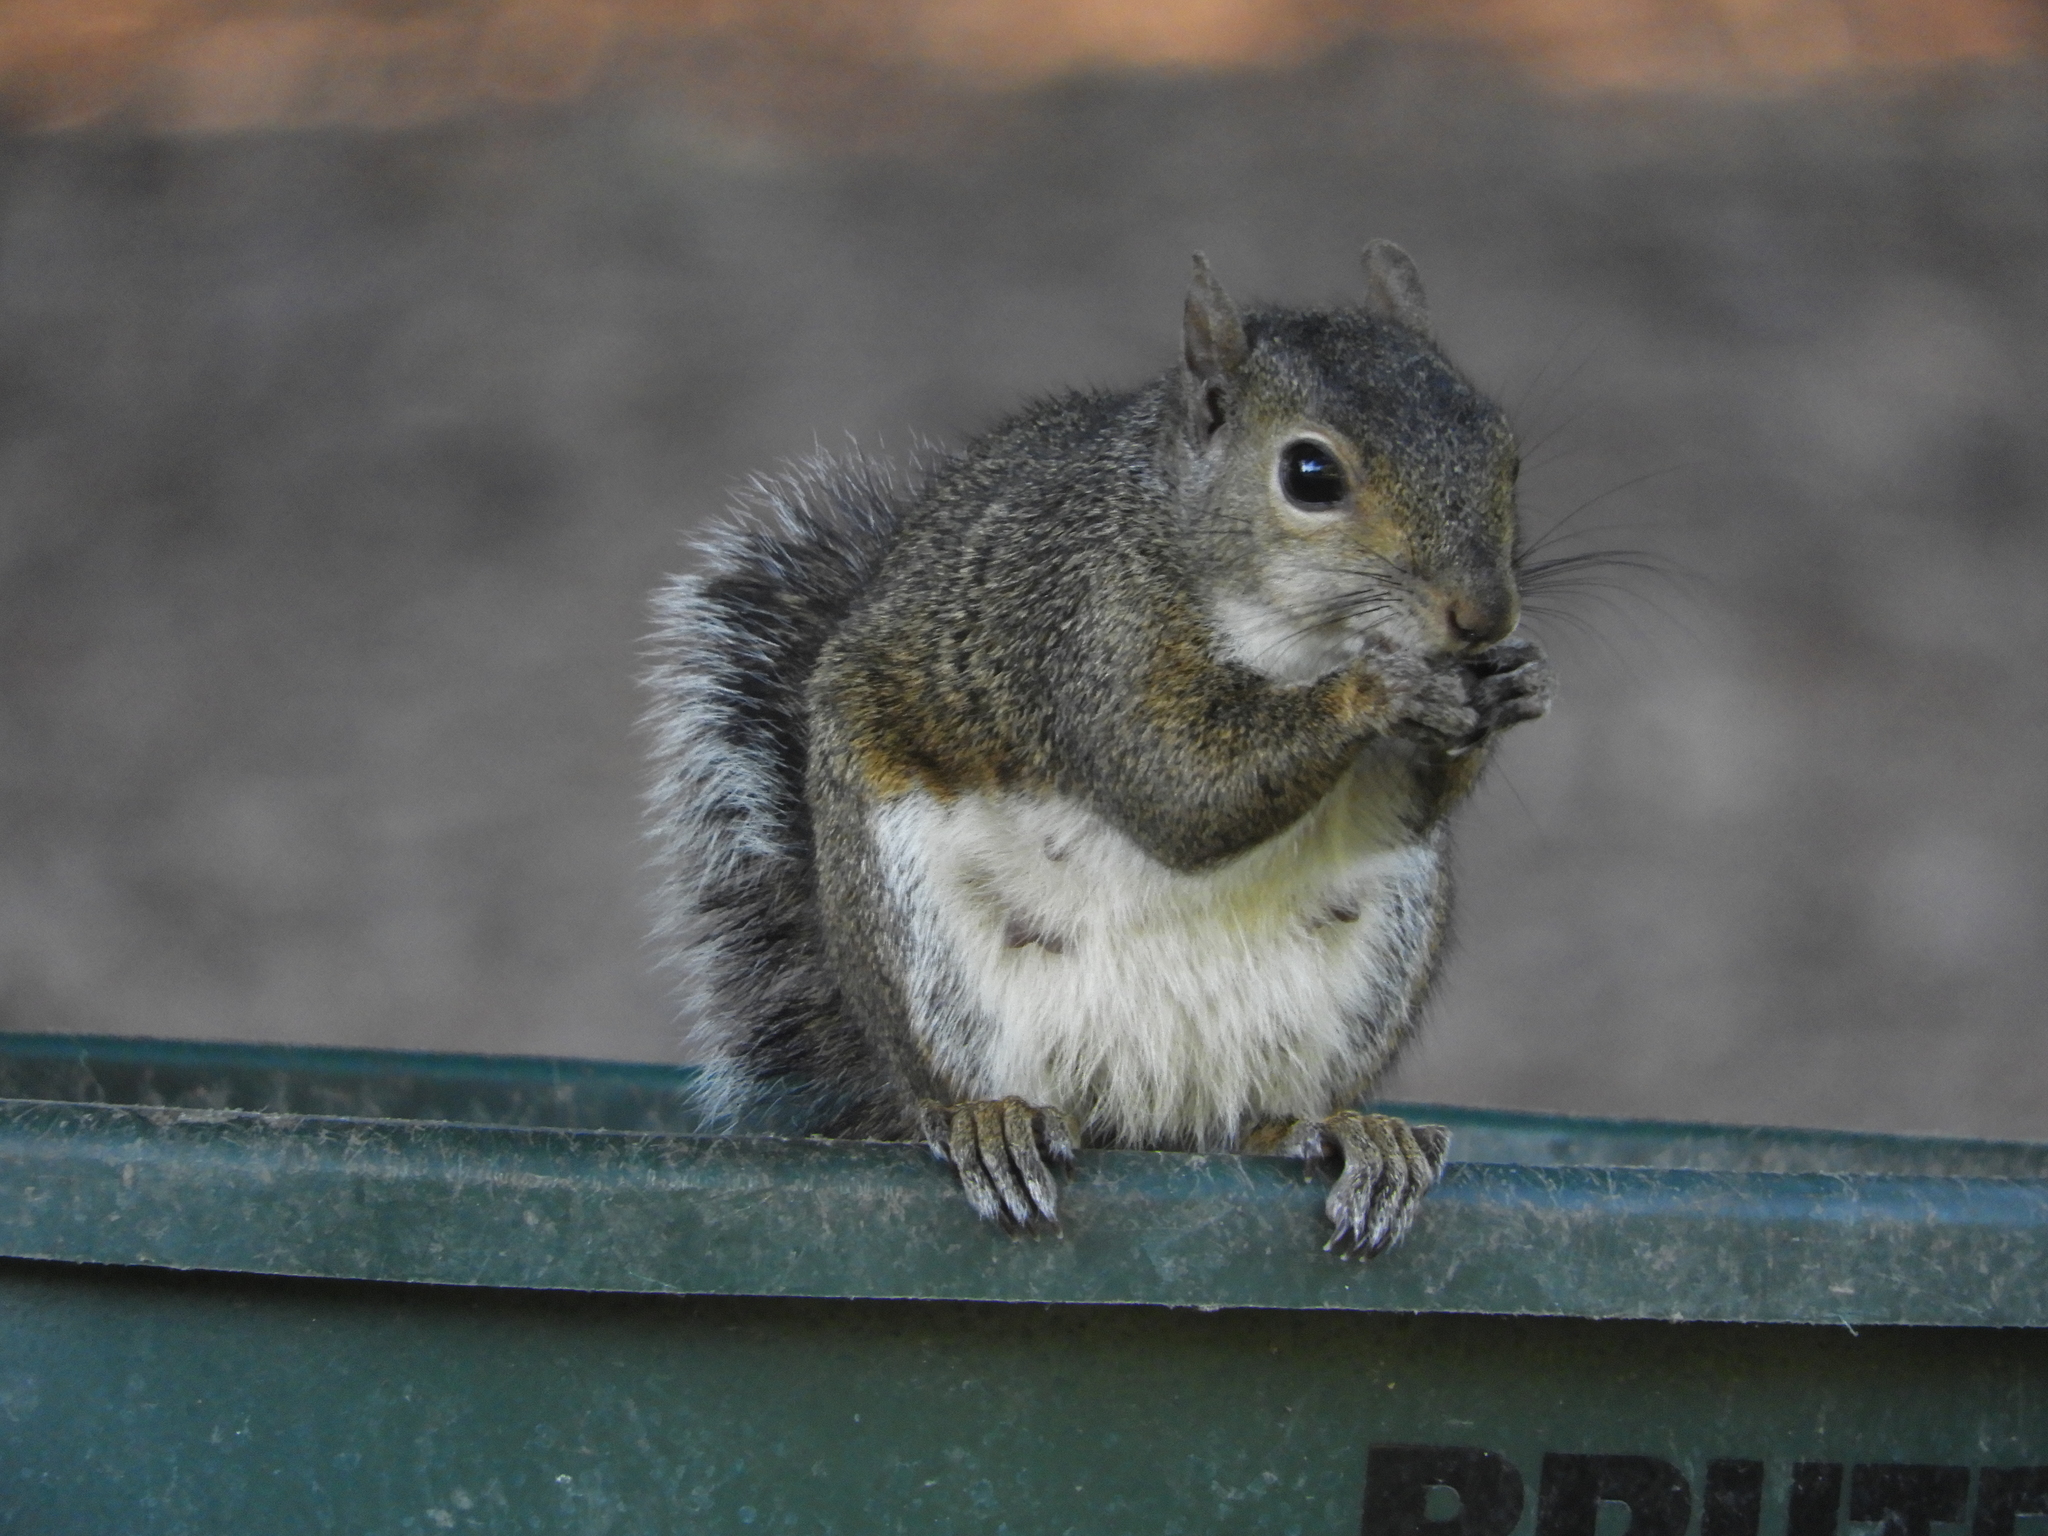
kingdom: Animalia
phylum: Chordata
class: Mammalia
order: Rodentia
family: Sciuridae
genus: Sciurus
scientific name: Sciurus carolinensis
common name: Eastern gray squirrel
